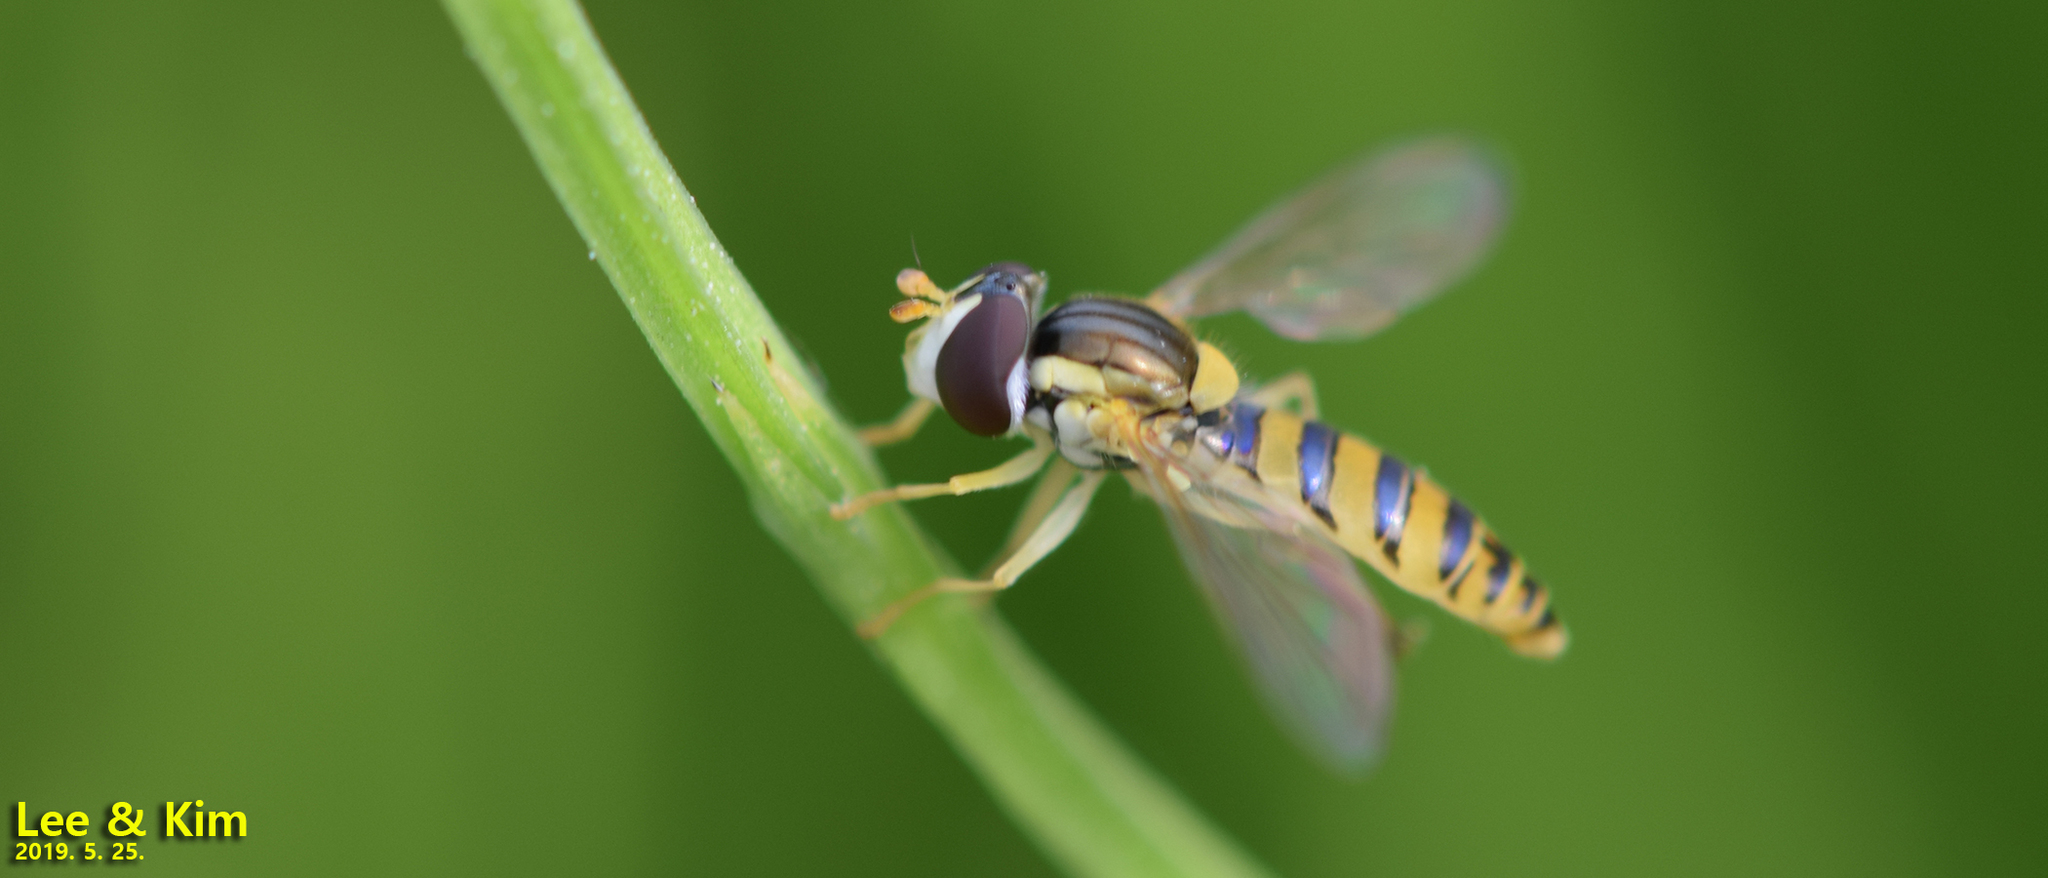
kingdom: Animalia
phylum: Arthropoda
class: Insecta
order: Diptera
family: Syrphidae
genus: Sphaerophoria
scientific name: Sphaerophoria scripta
